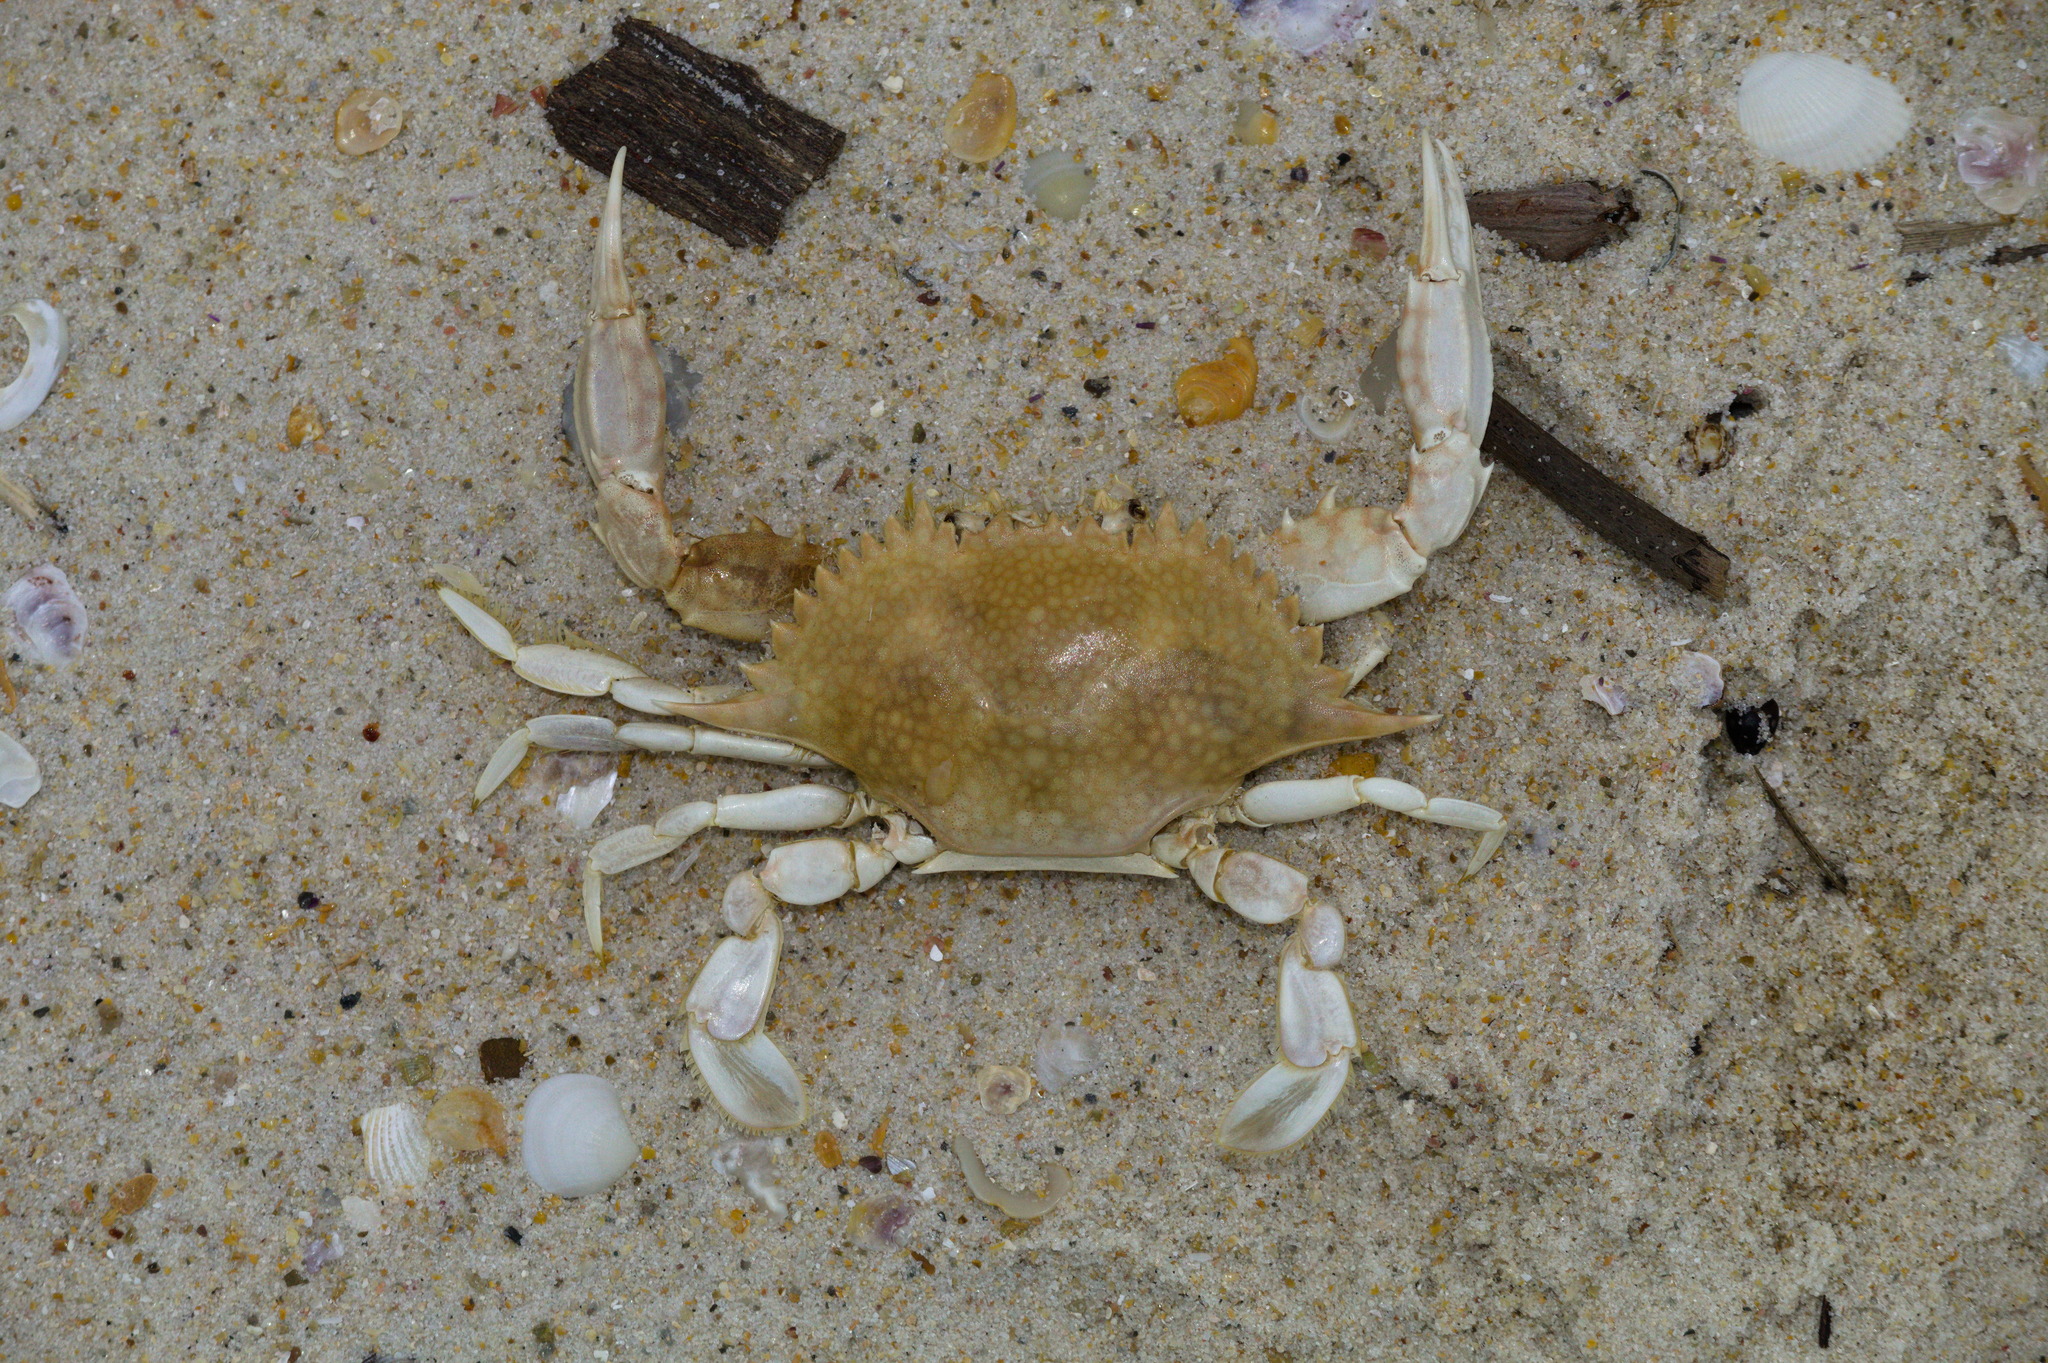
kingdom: Animalia
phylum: Arthropoda
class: Malacostraca
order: Decapoda
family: Portunidae
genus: Arenaeus
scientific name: Arenaeus cribrarius
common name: Speckled crab
